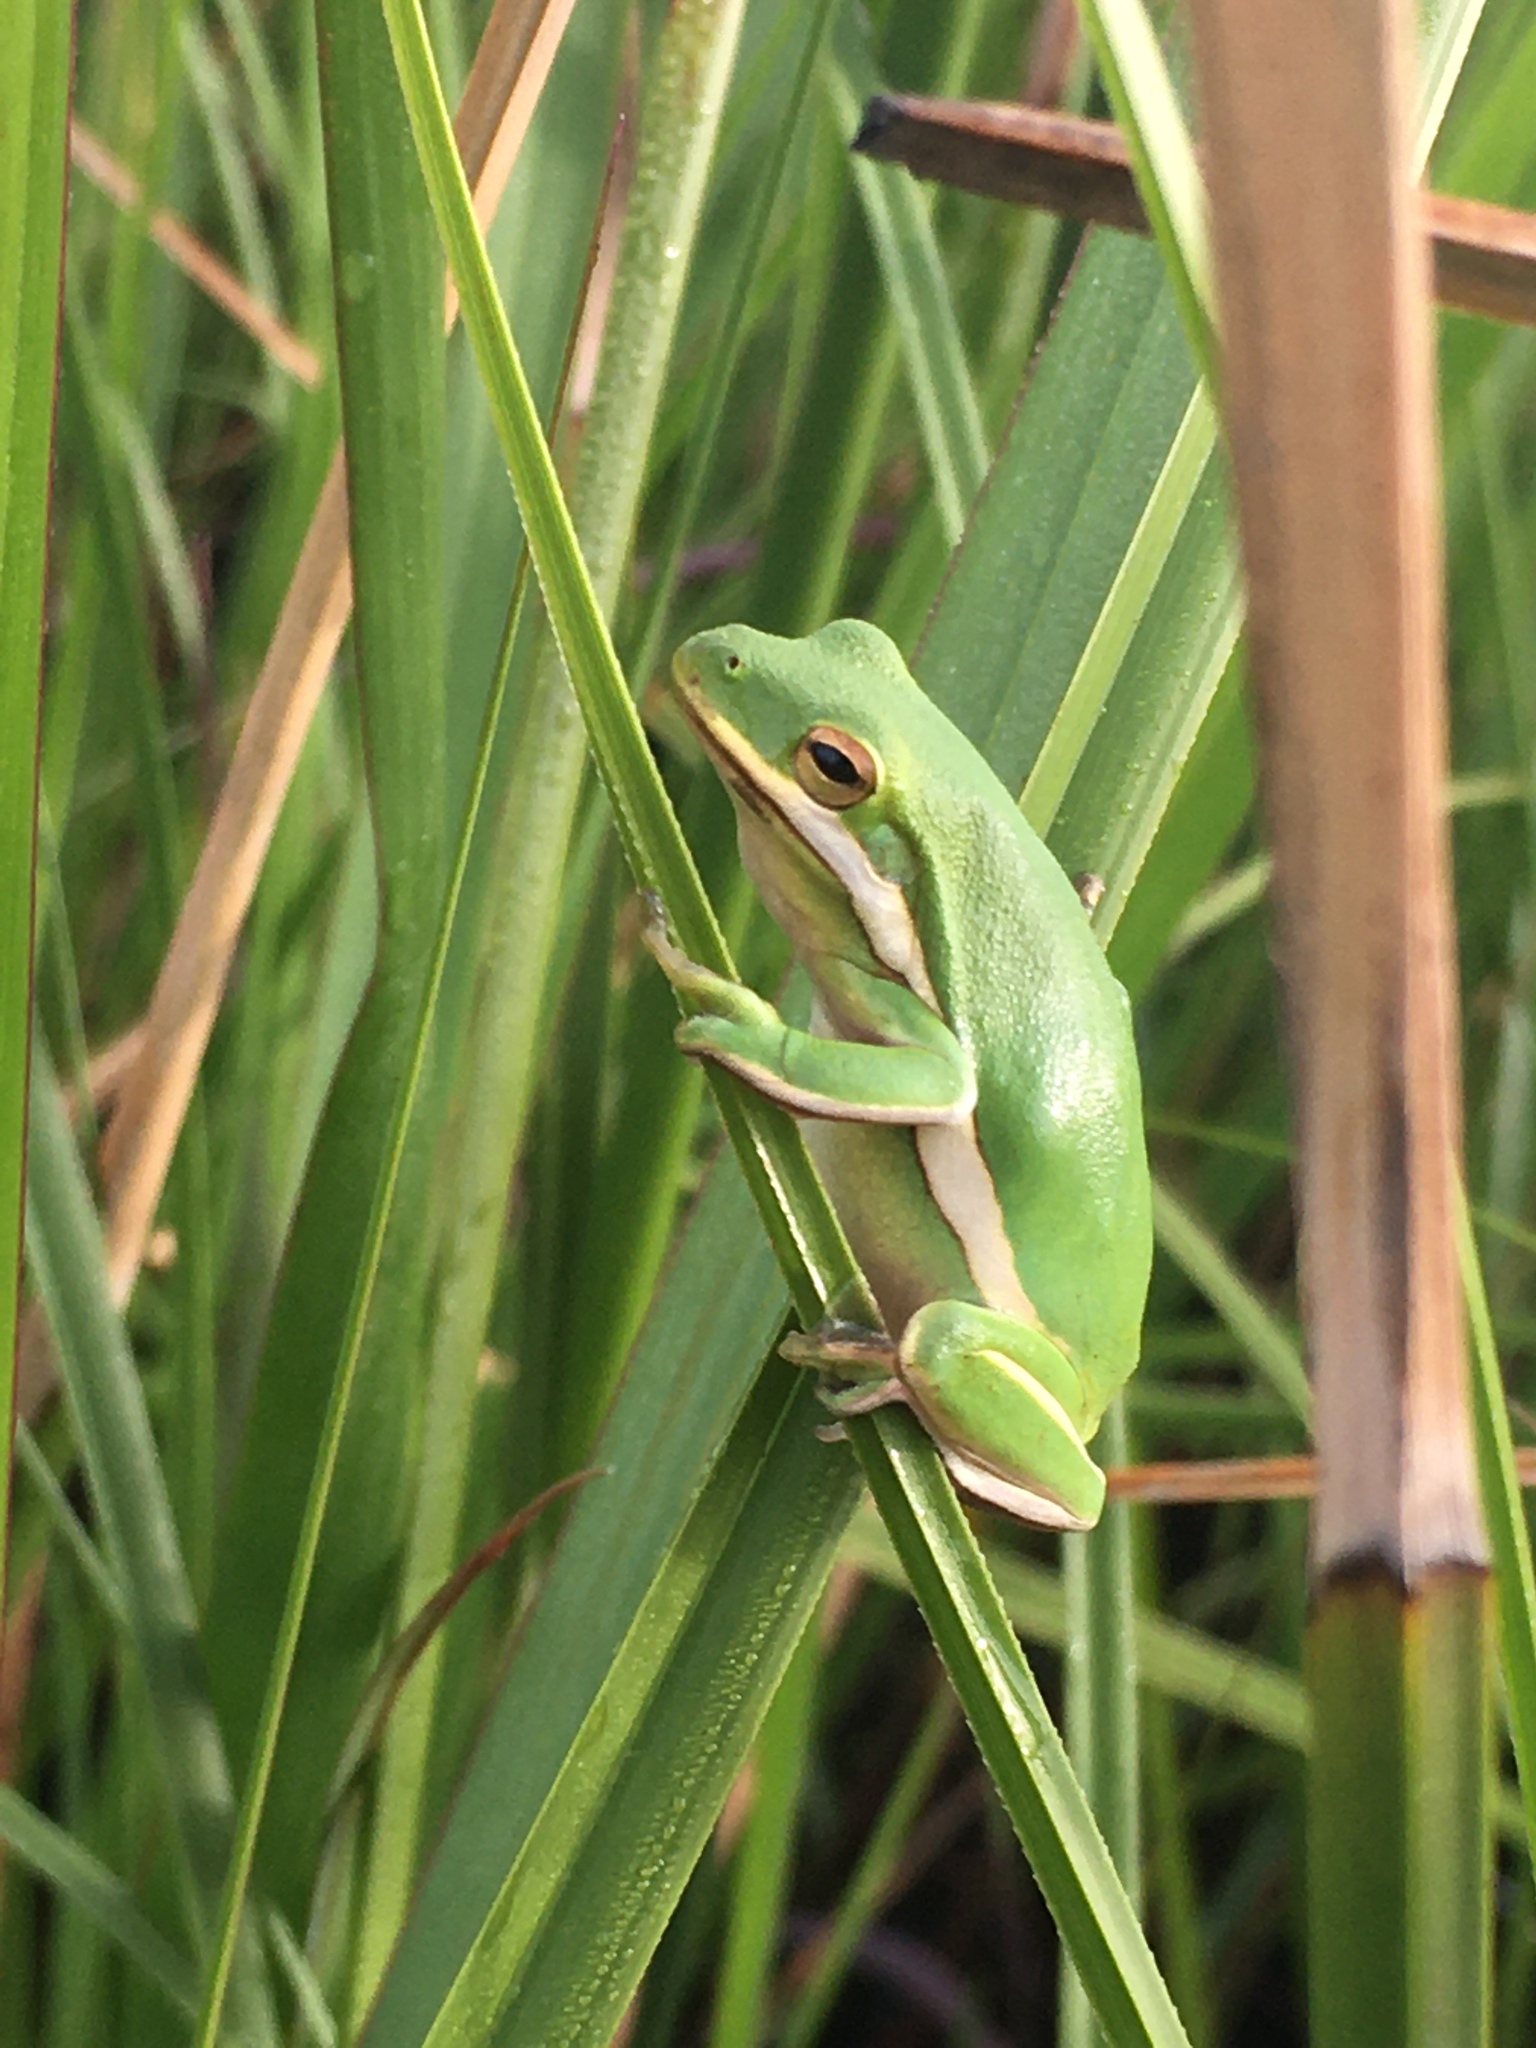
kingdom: Animalia
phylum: Chordata
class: Amphibia
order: Anura
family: Hylidae
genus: Dryophytes
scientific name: Dryophytes cinereus
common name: Green treefrog
